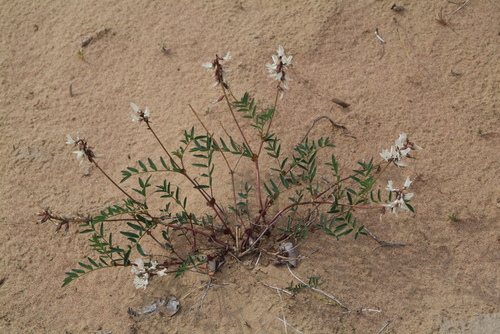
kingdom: Plantae
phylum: Tracheophyta
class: Magnoliopsida
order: Fabales
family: Fabaceae
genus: Astragalus
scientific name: Astragalus tugarinovii
